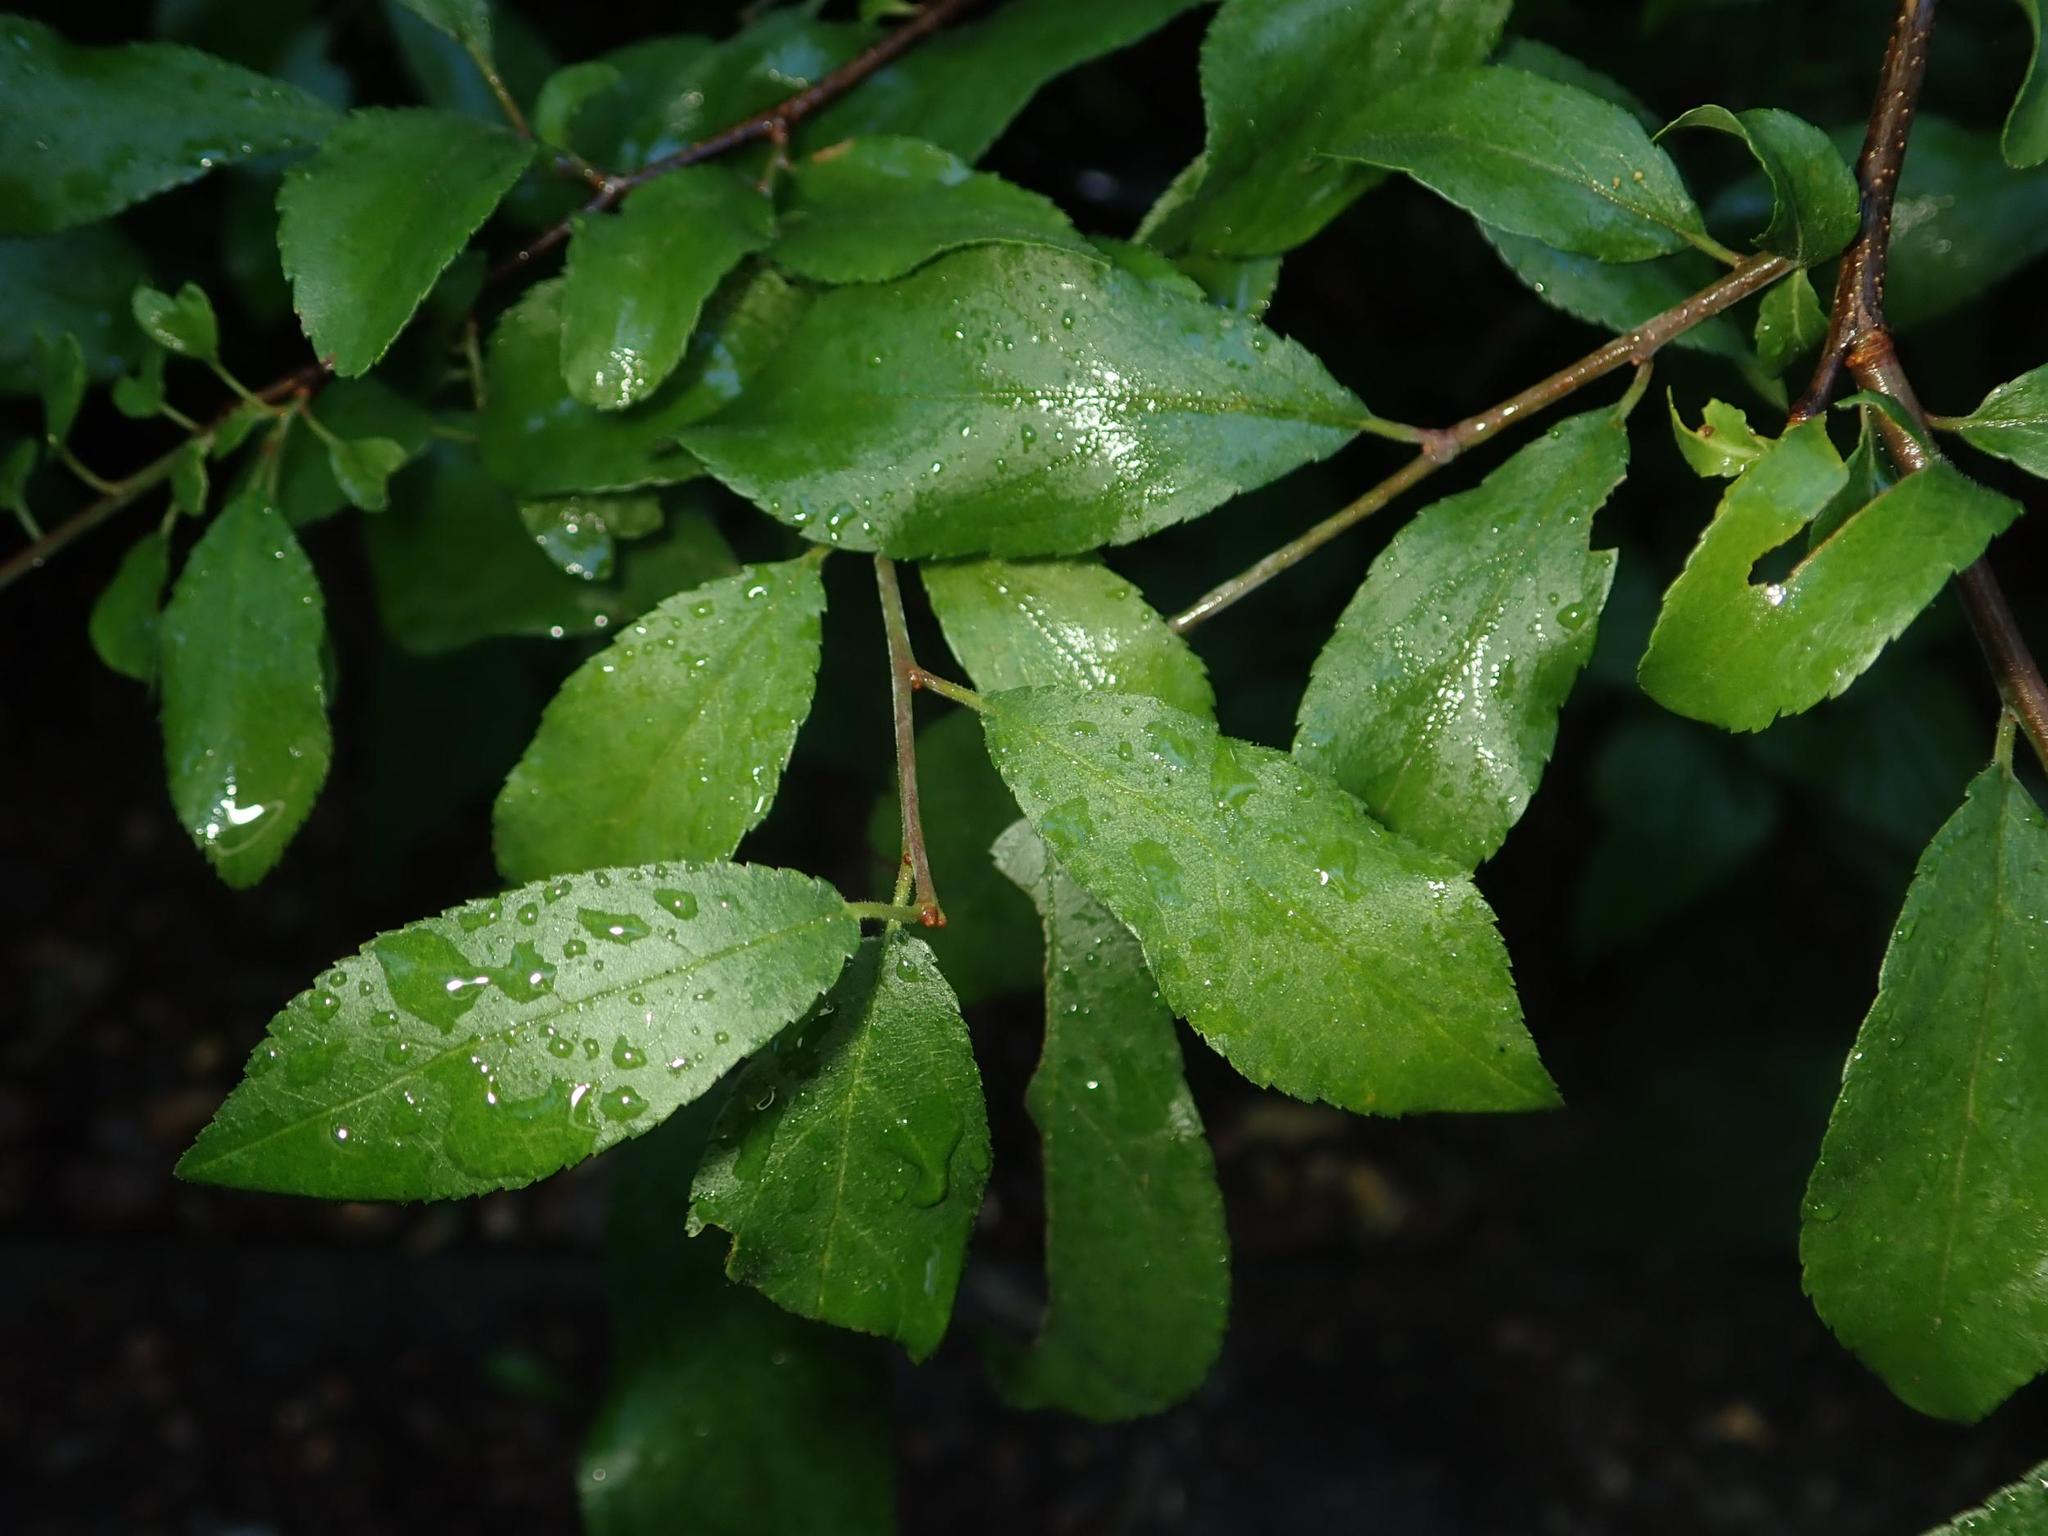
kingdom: Plantae
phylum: Tracheophyta
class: Magnoliopsida
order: Rosales
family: Rosaceae
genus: Prunus
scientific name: Prunus spinosa
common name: Blackthorn
